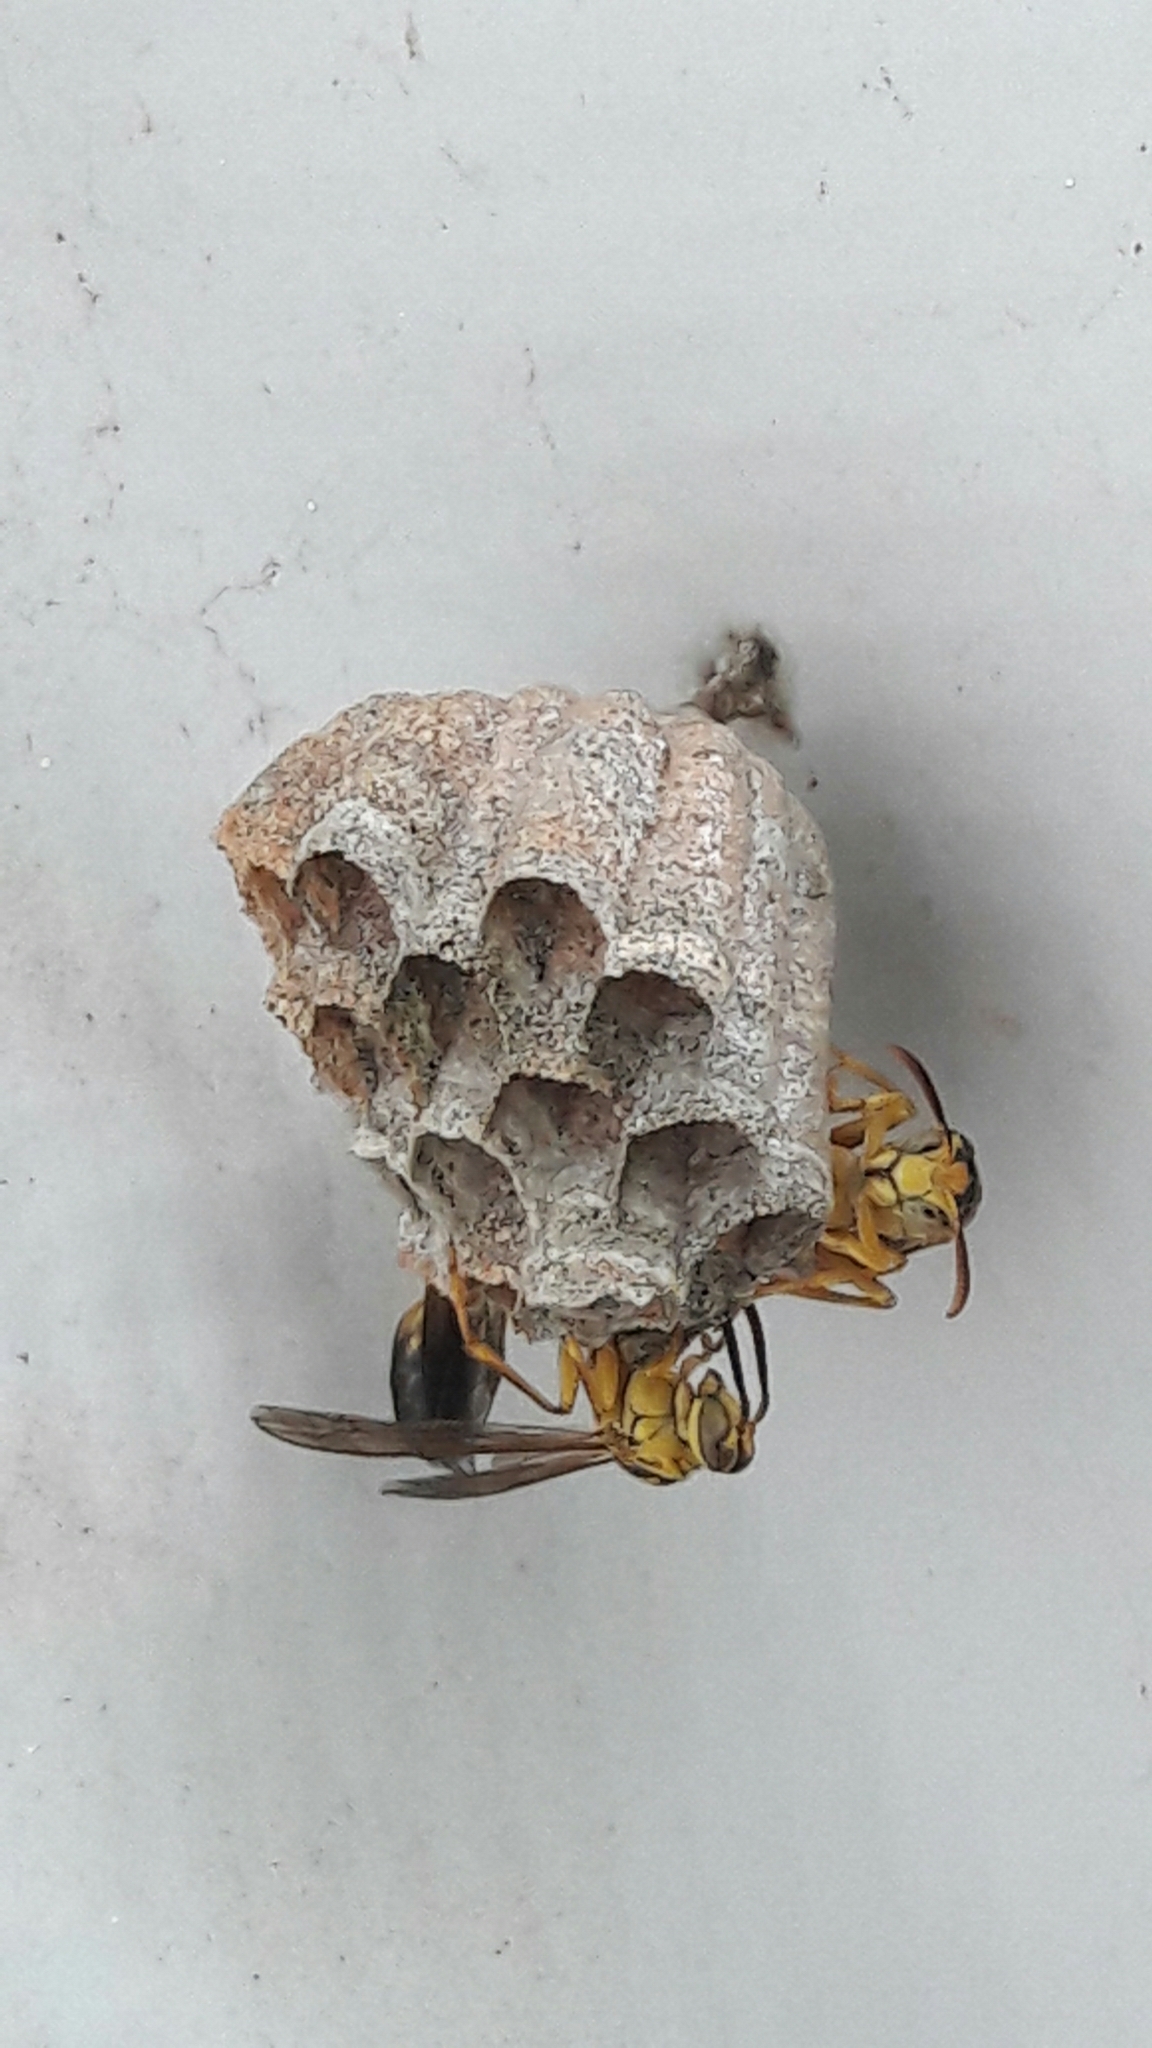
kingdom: Animalia
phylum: Arthropoda
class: Insecta
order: Hymenoptera
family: Vespidae
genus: Mischocyttarus
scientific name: Mischocyttarus cerberus
